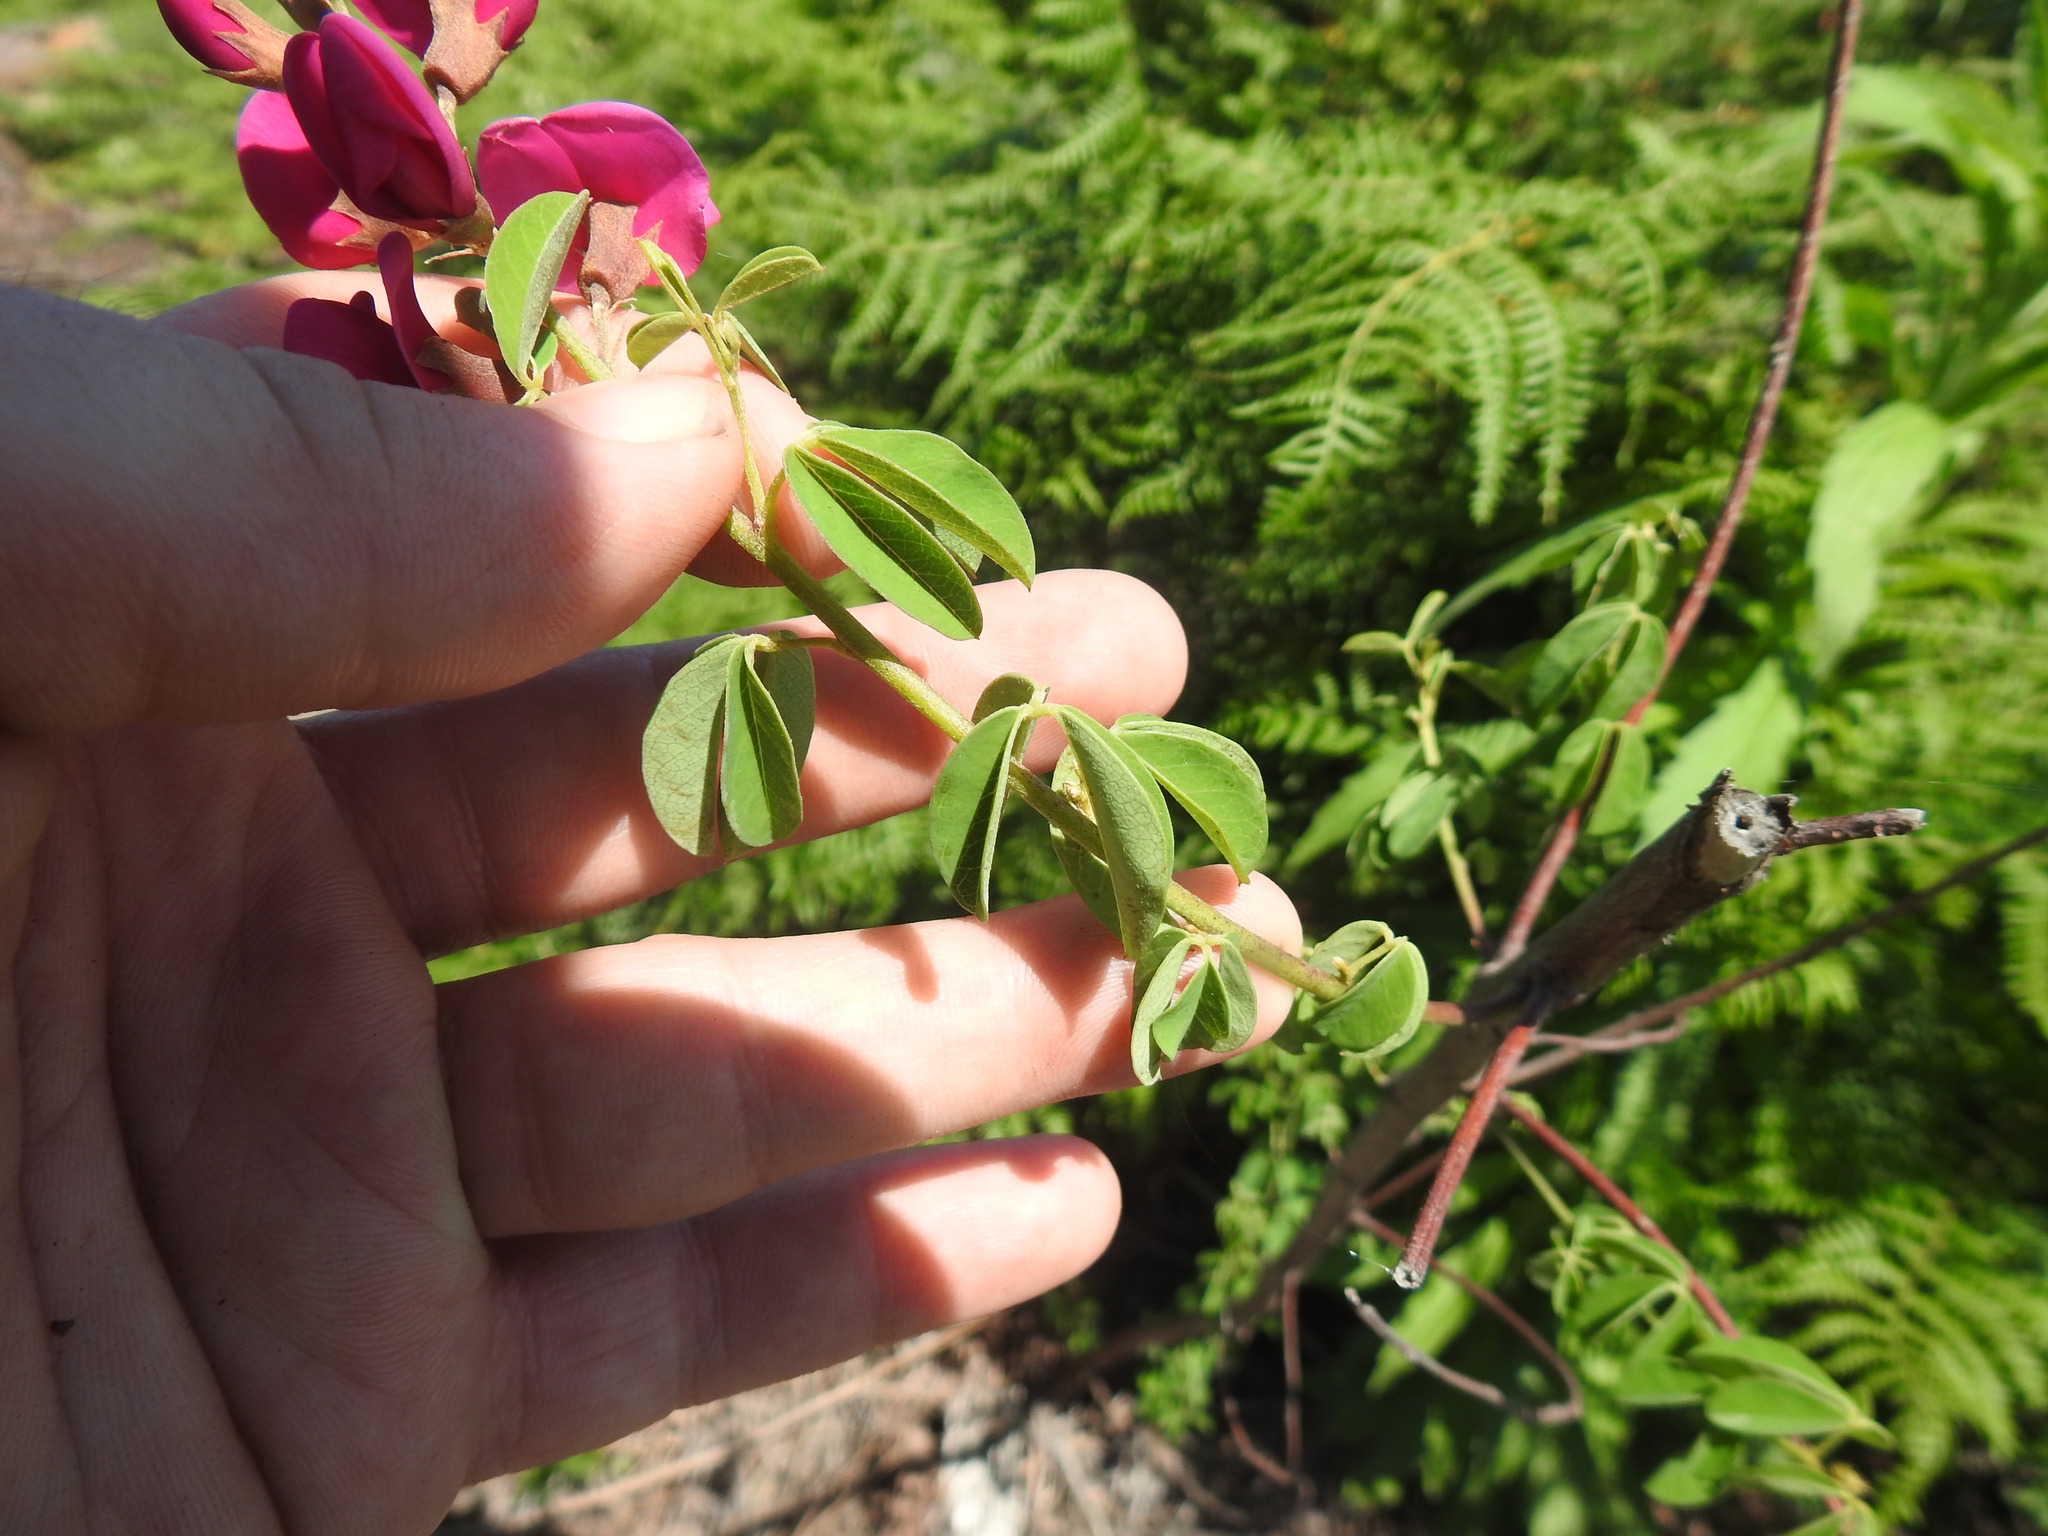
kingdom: Plantae
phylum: Tracheophyta
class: Magnoliopsida
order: Fabales
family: Fabaceae
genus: Tephrosia
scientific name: Tephrosia capensis
